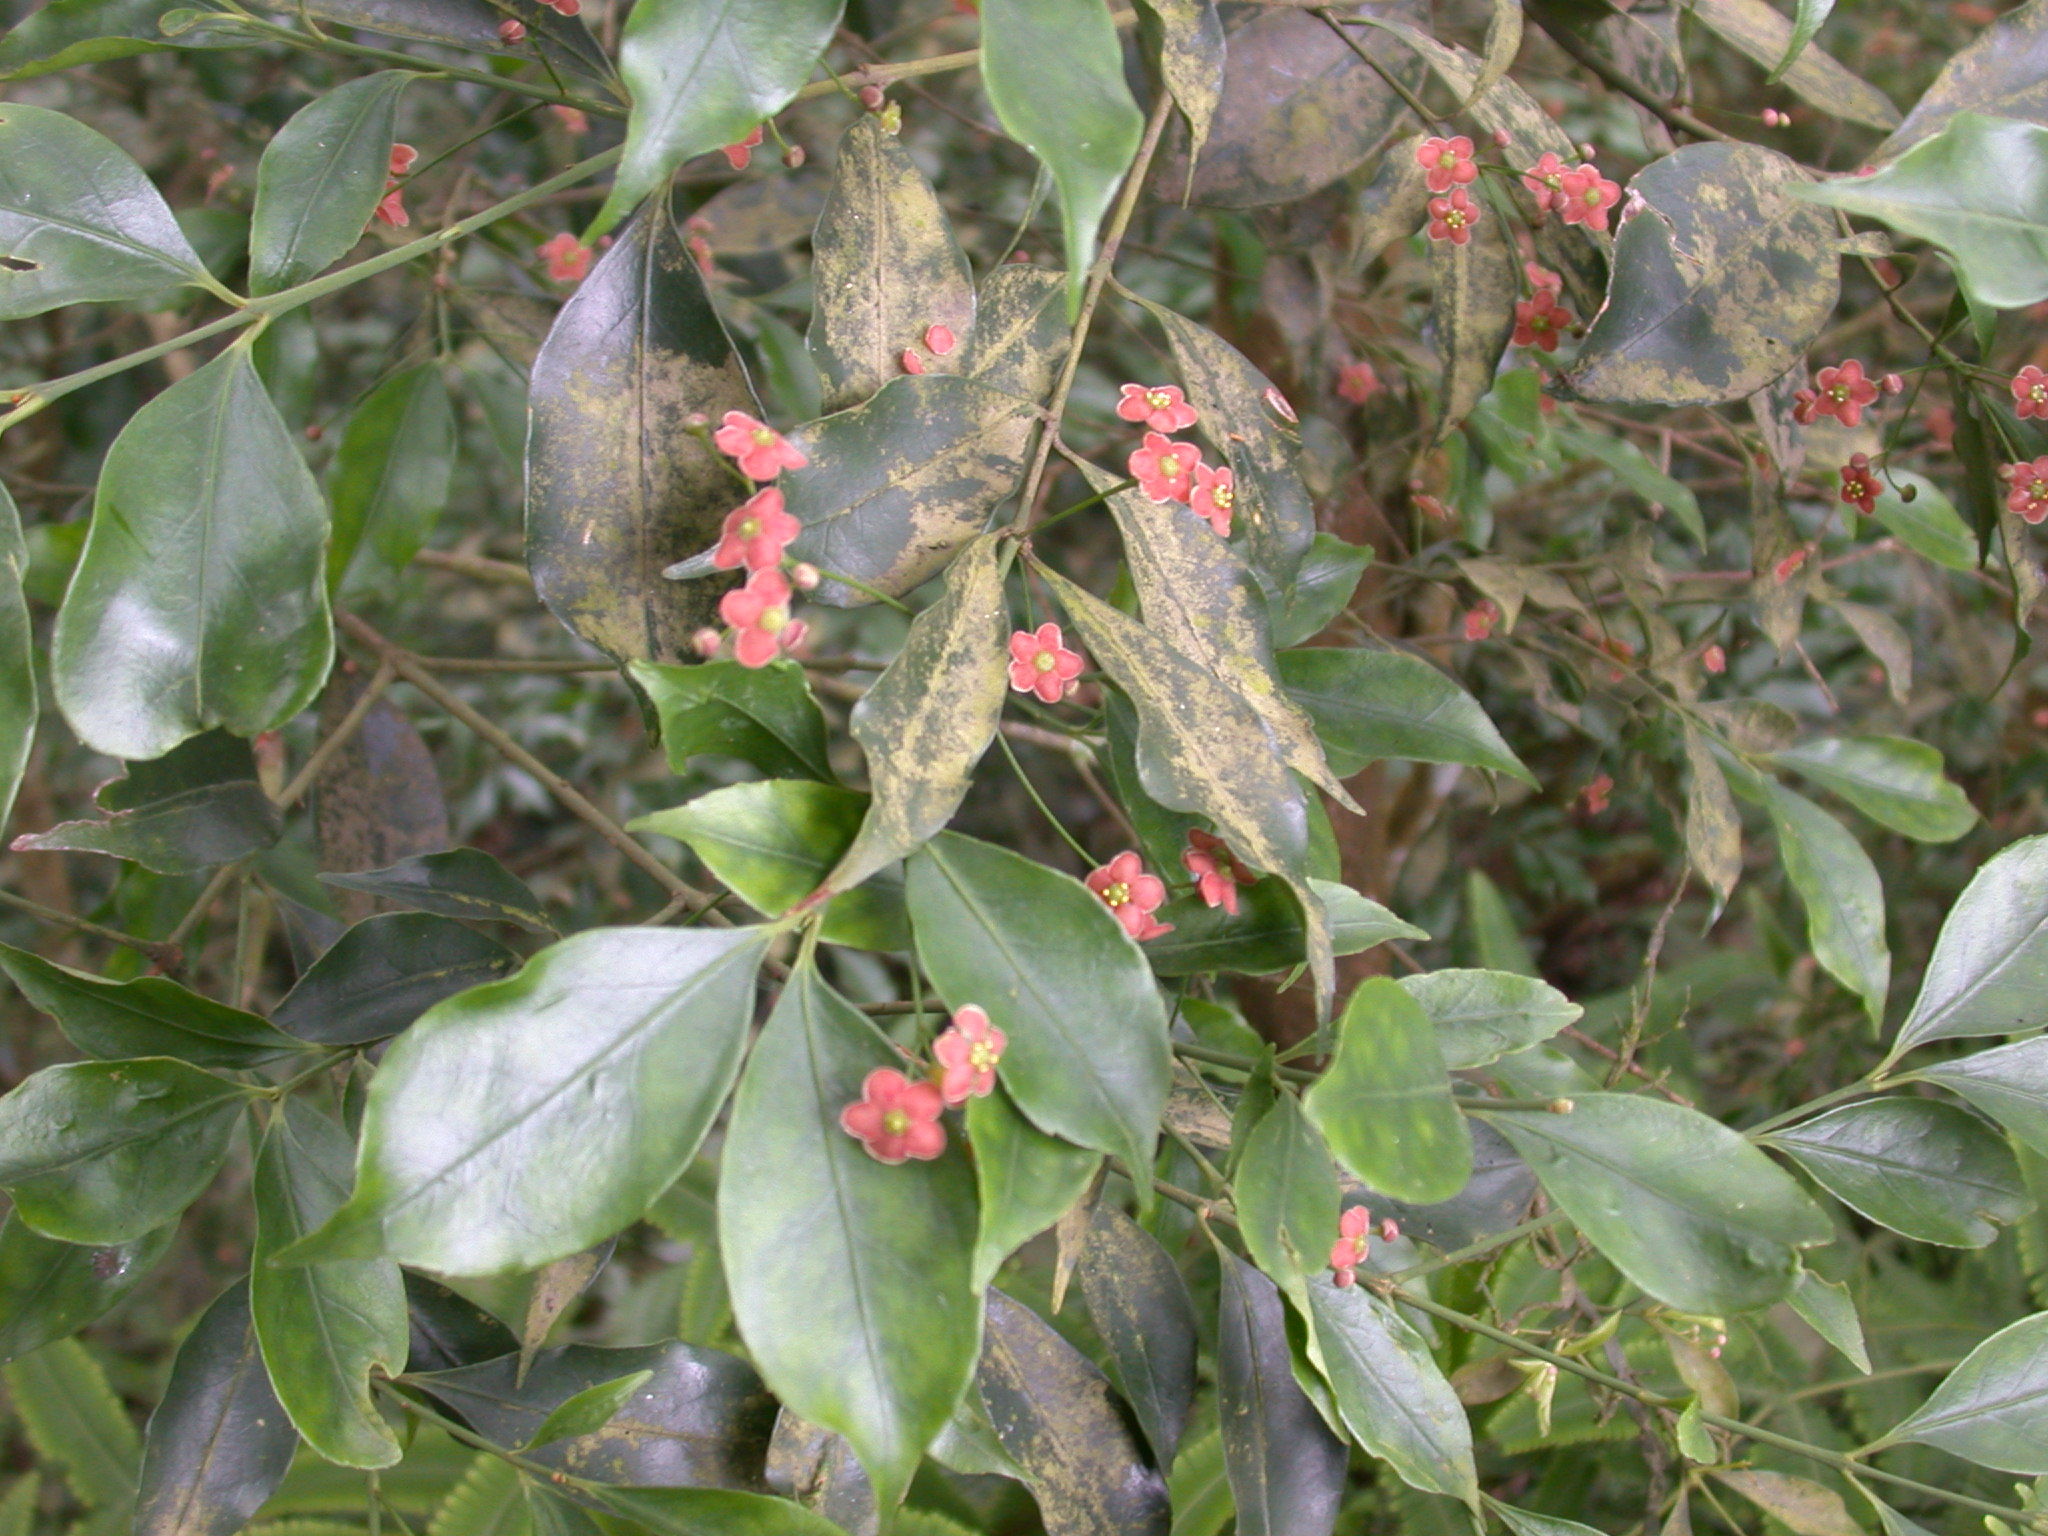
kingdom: Plantae
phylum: Tracheophyta
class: Magnoliopsida
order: Celastrales
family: Celastraceae
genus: Euonymus
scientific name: Euonymus laxiflorus
